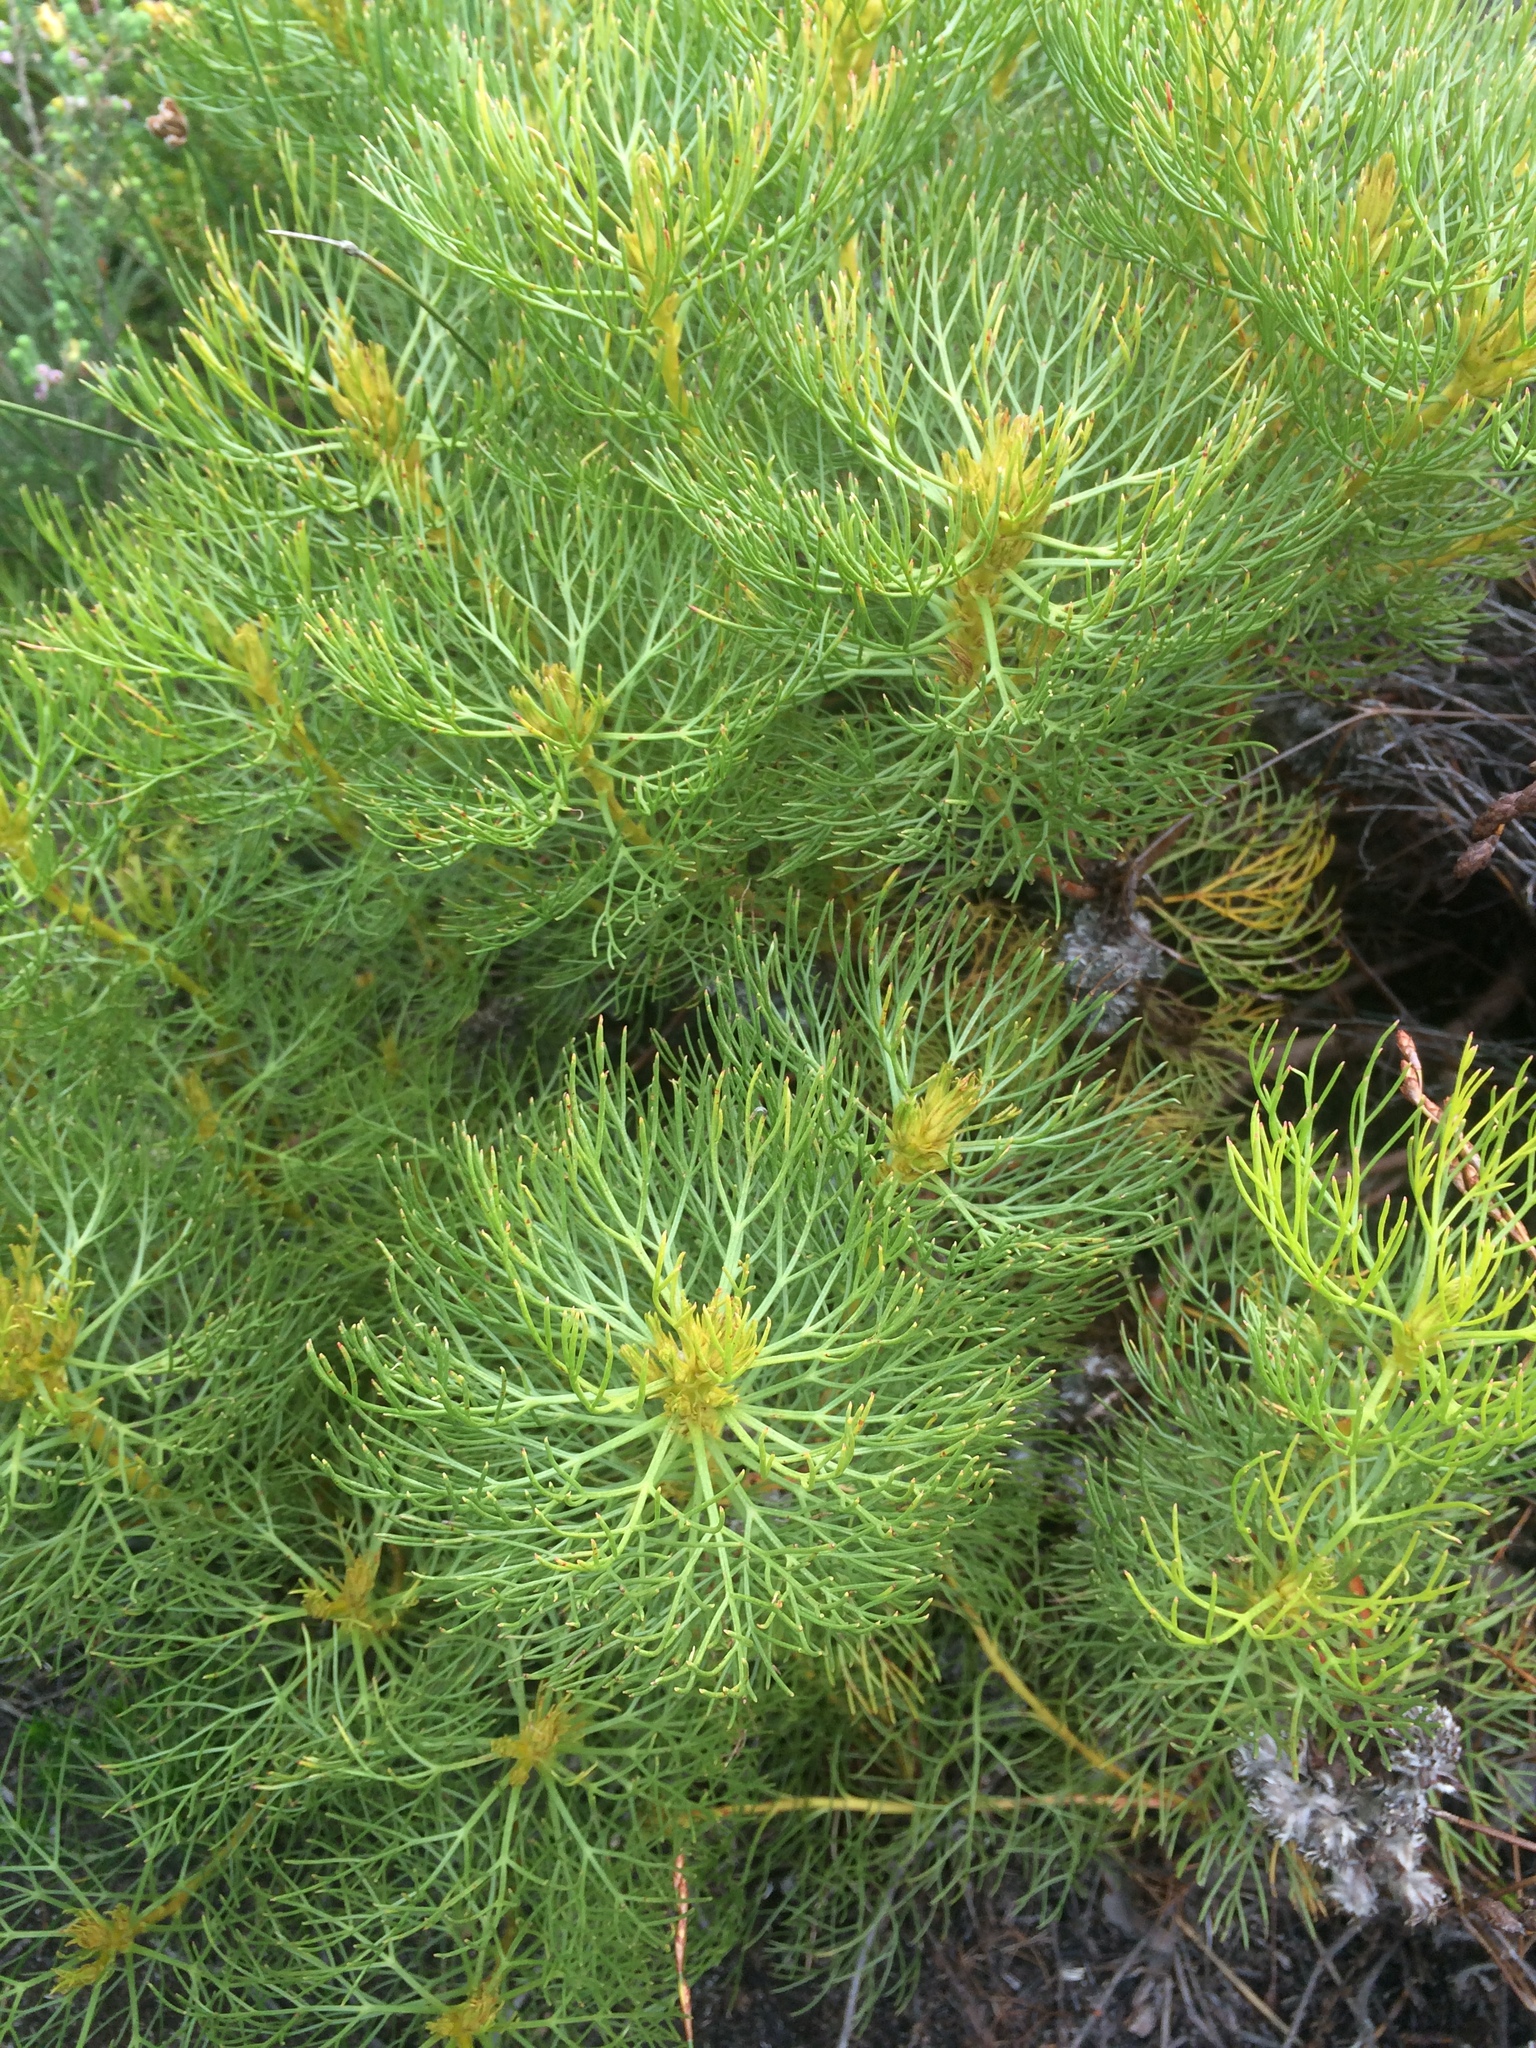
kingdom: Plantae
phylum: Tracheophyta
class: Magnoliopsida
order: Proteales
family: Proteaceae
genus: Serruria
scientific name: Serruria glomerata
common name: Cluster spiderhead
